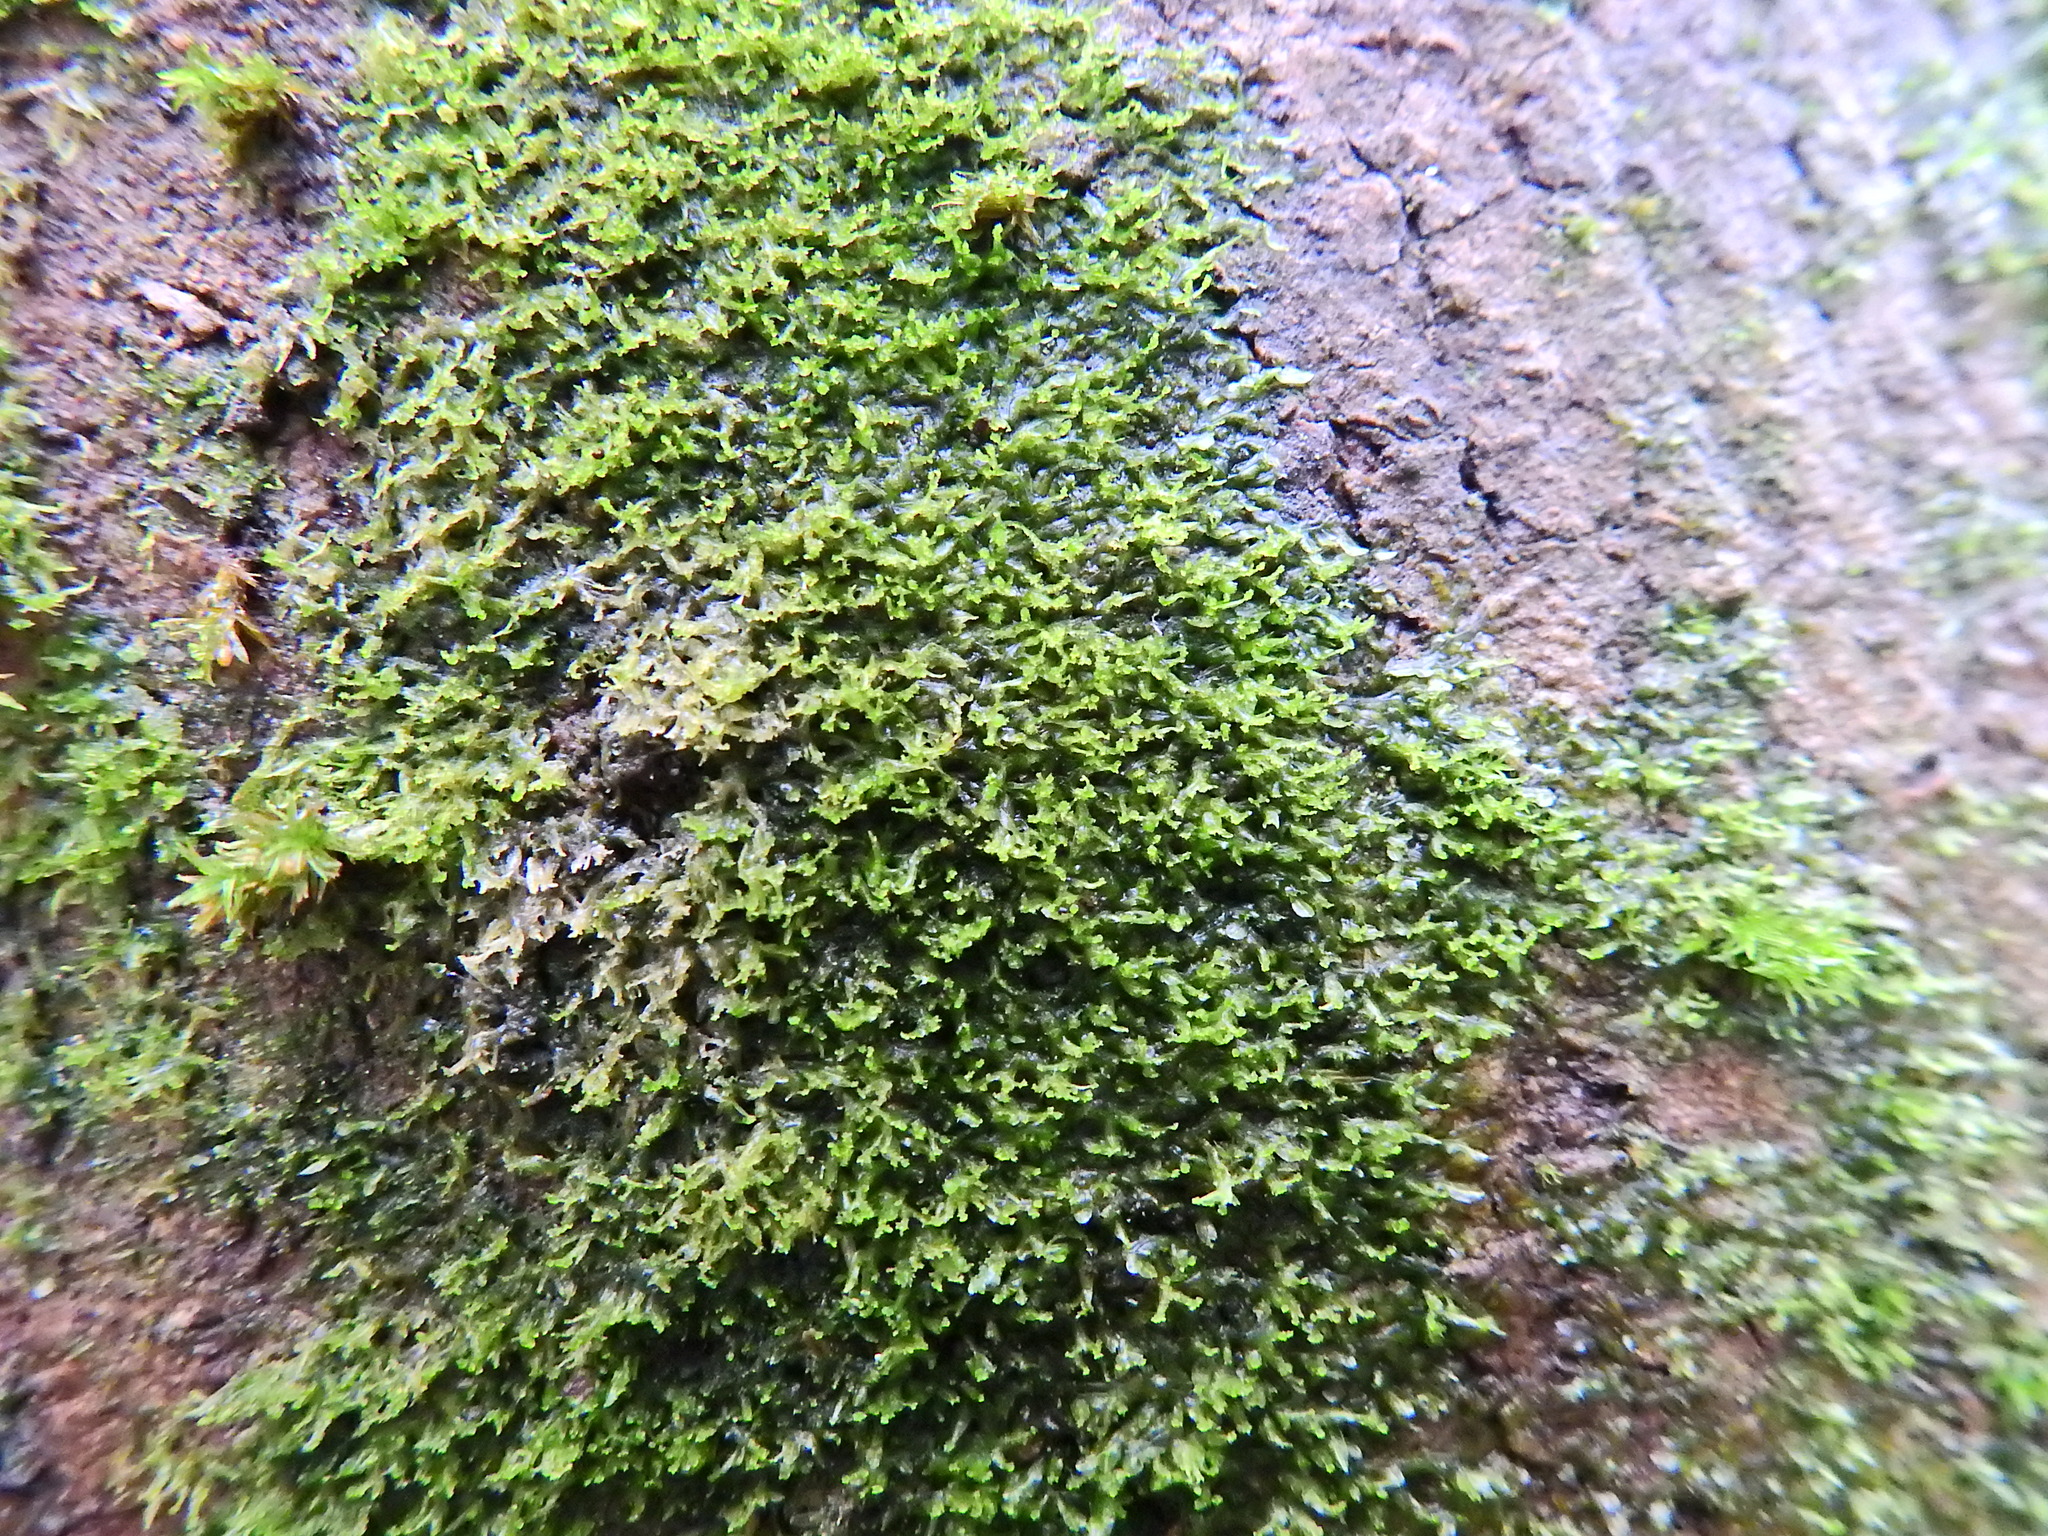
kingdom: Plantae
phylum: Marchantiophyta
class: Jungermanniopsida
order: Metzgeriales
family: Metzgeriaceae
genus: Metzgeria
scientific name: Metzgeria violacea
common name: Blueish veilwort
